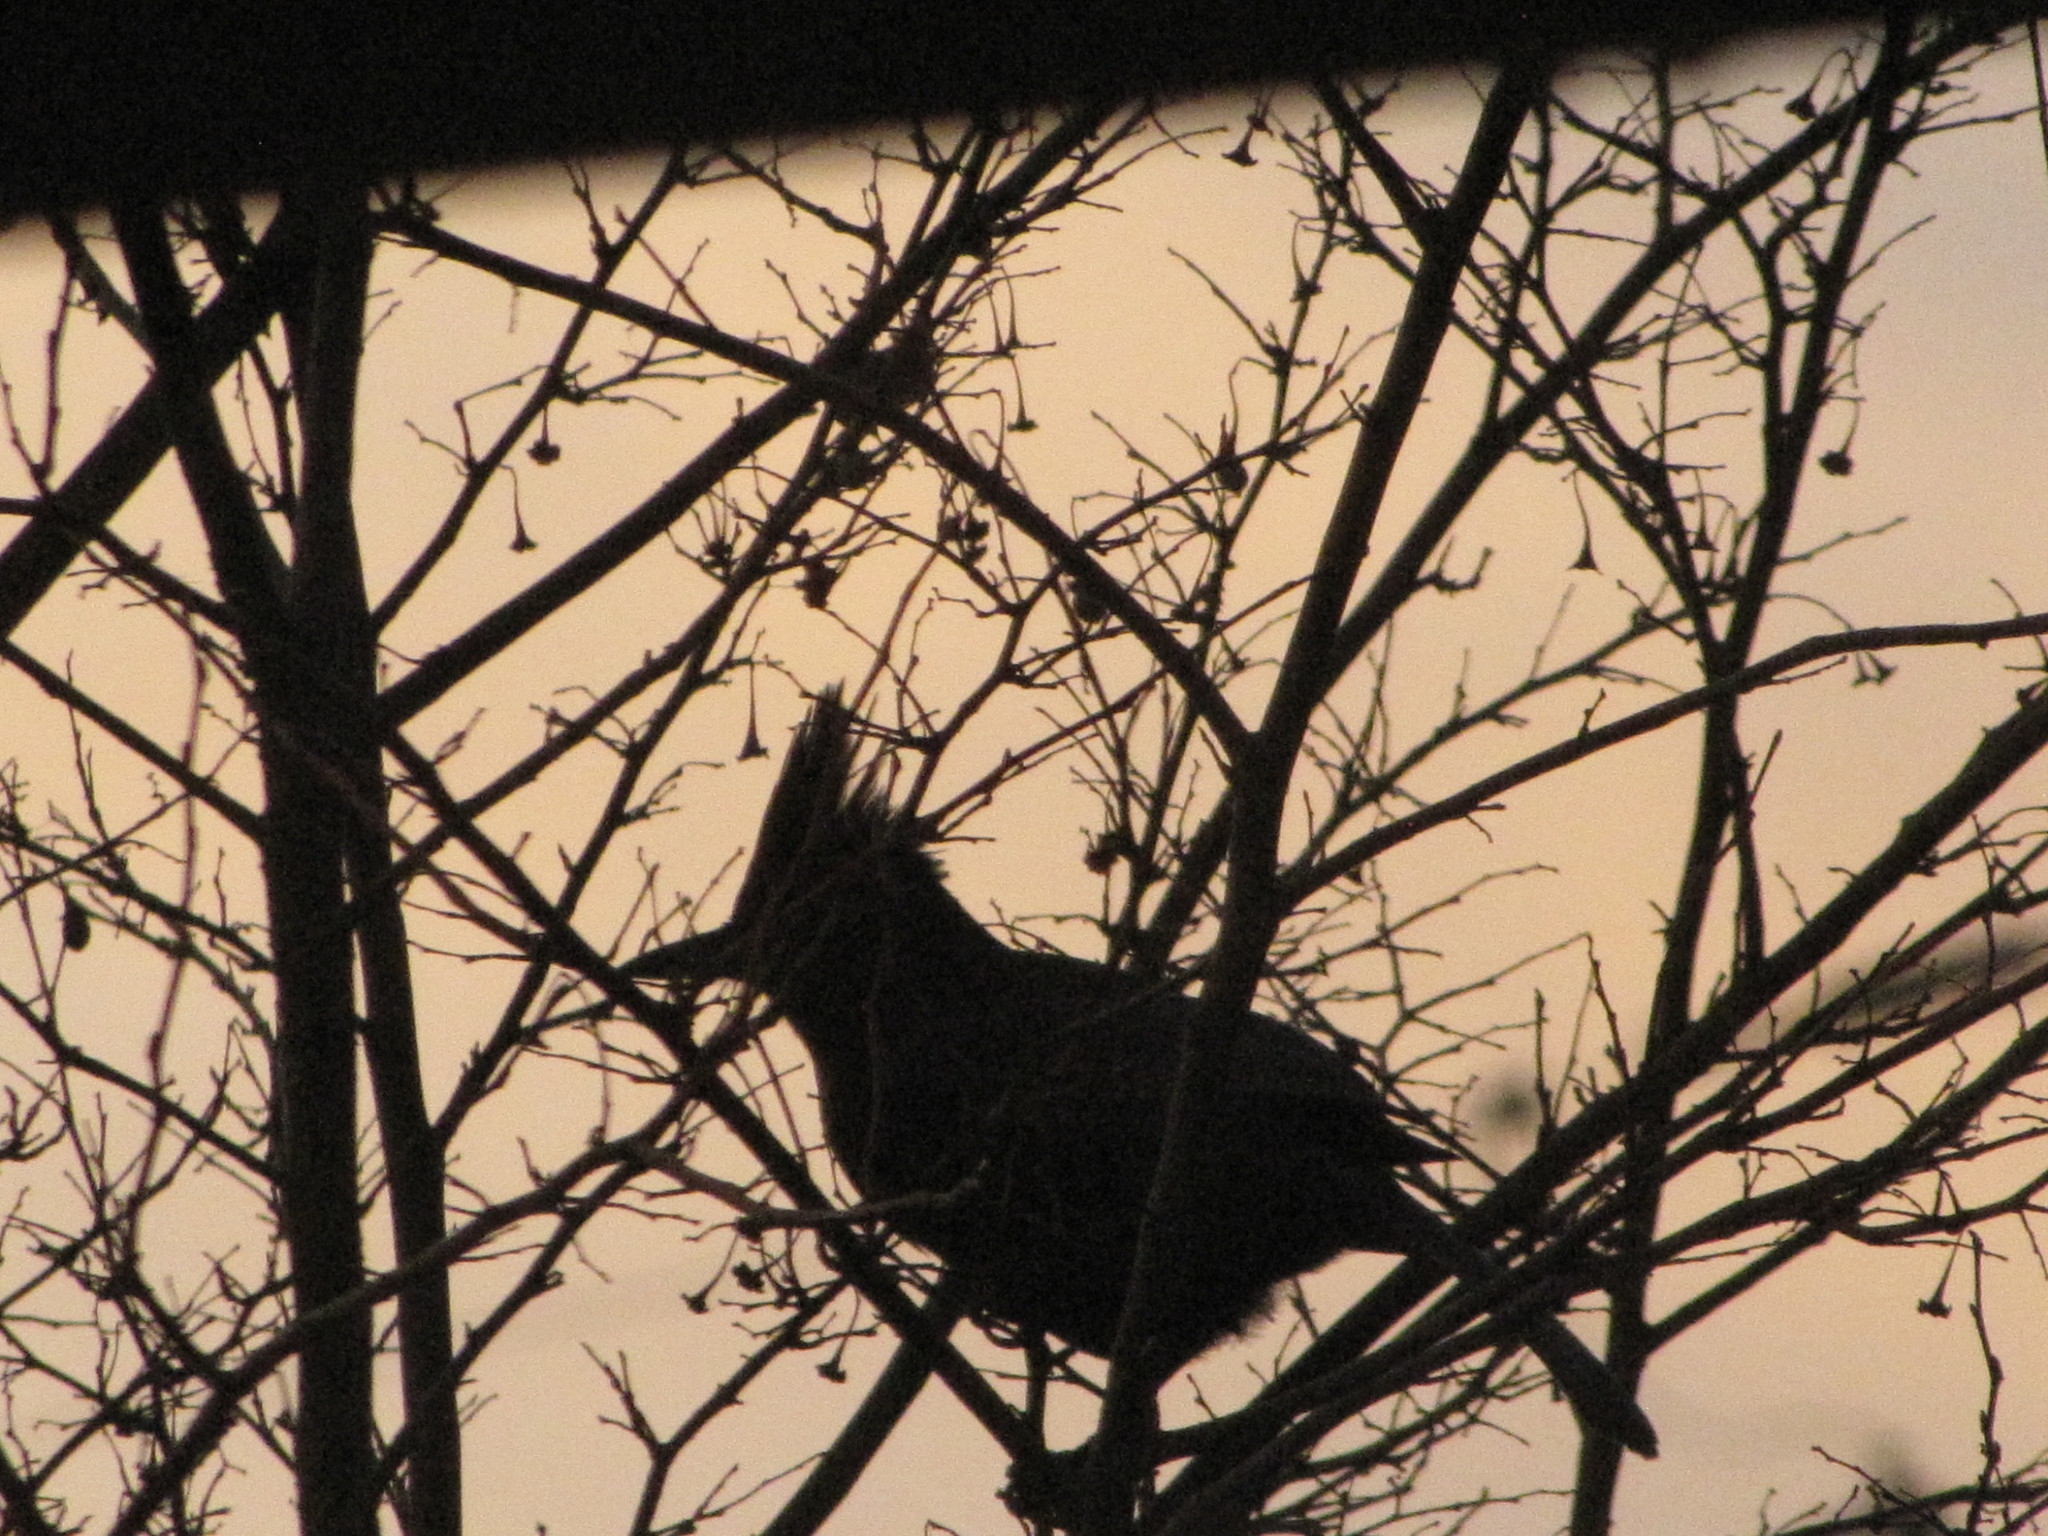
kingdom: Animalia
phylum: Chordata
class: Aves
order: Passeriformes
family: Corvidae
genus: Cyanocitta
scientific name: Cyanocitta stelleri
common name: Steller's jay
